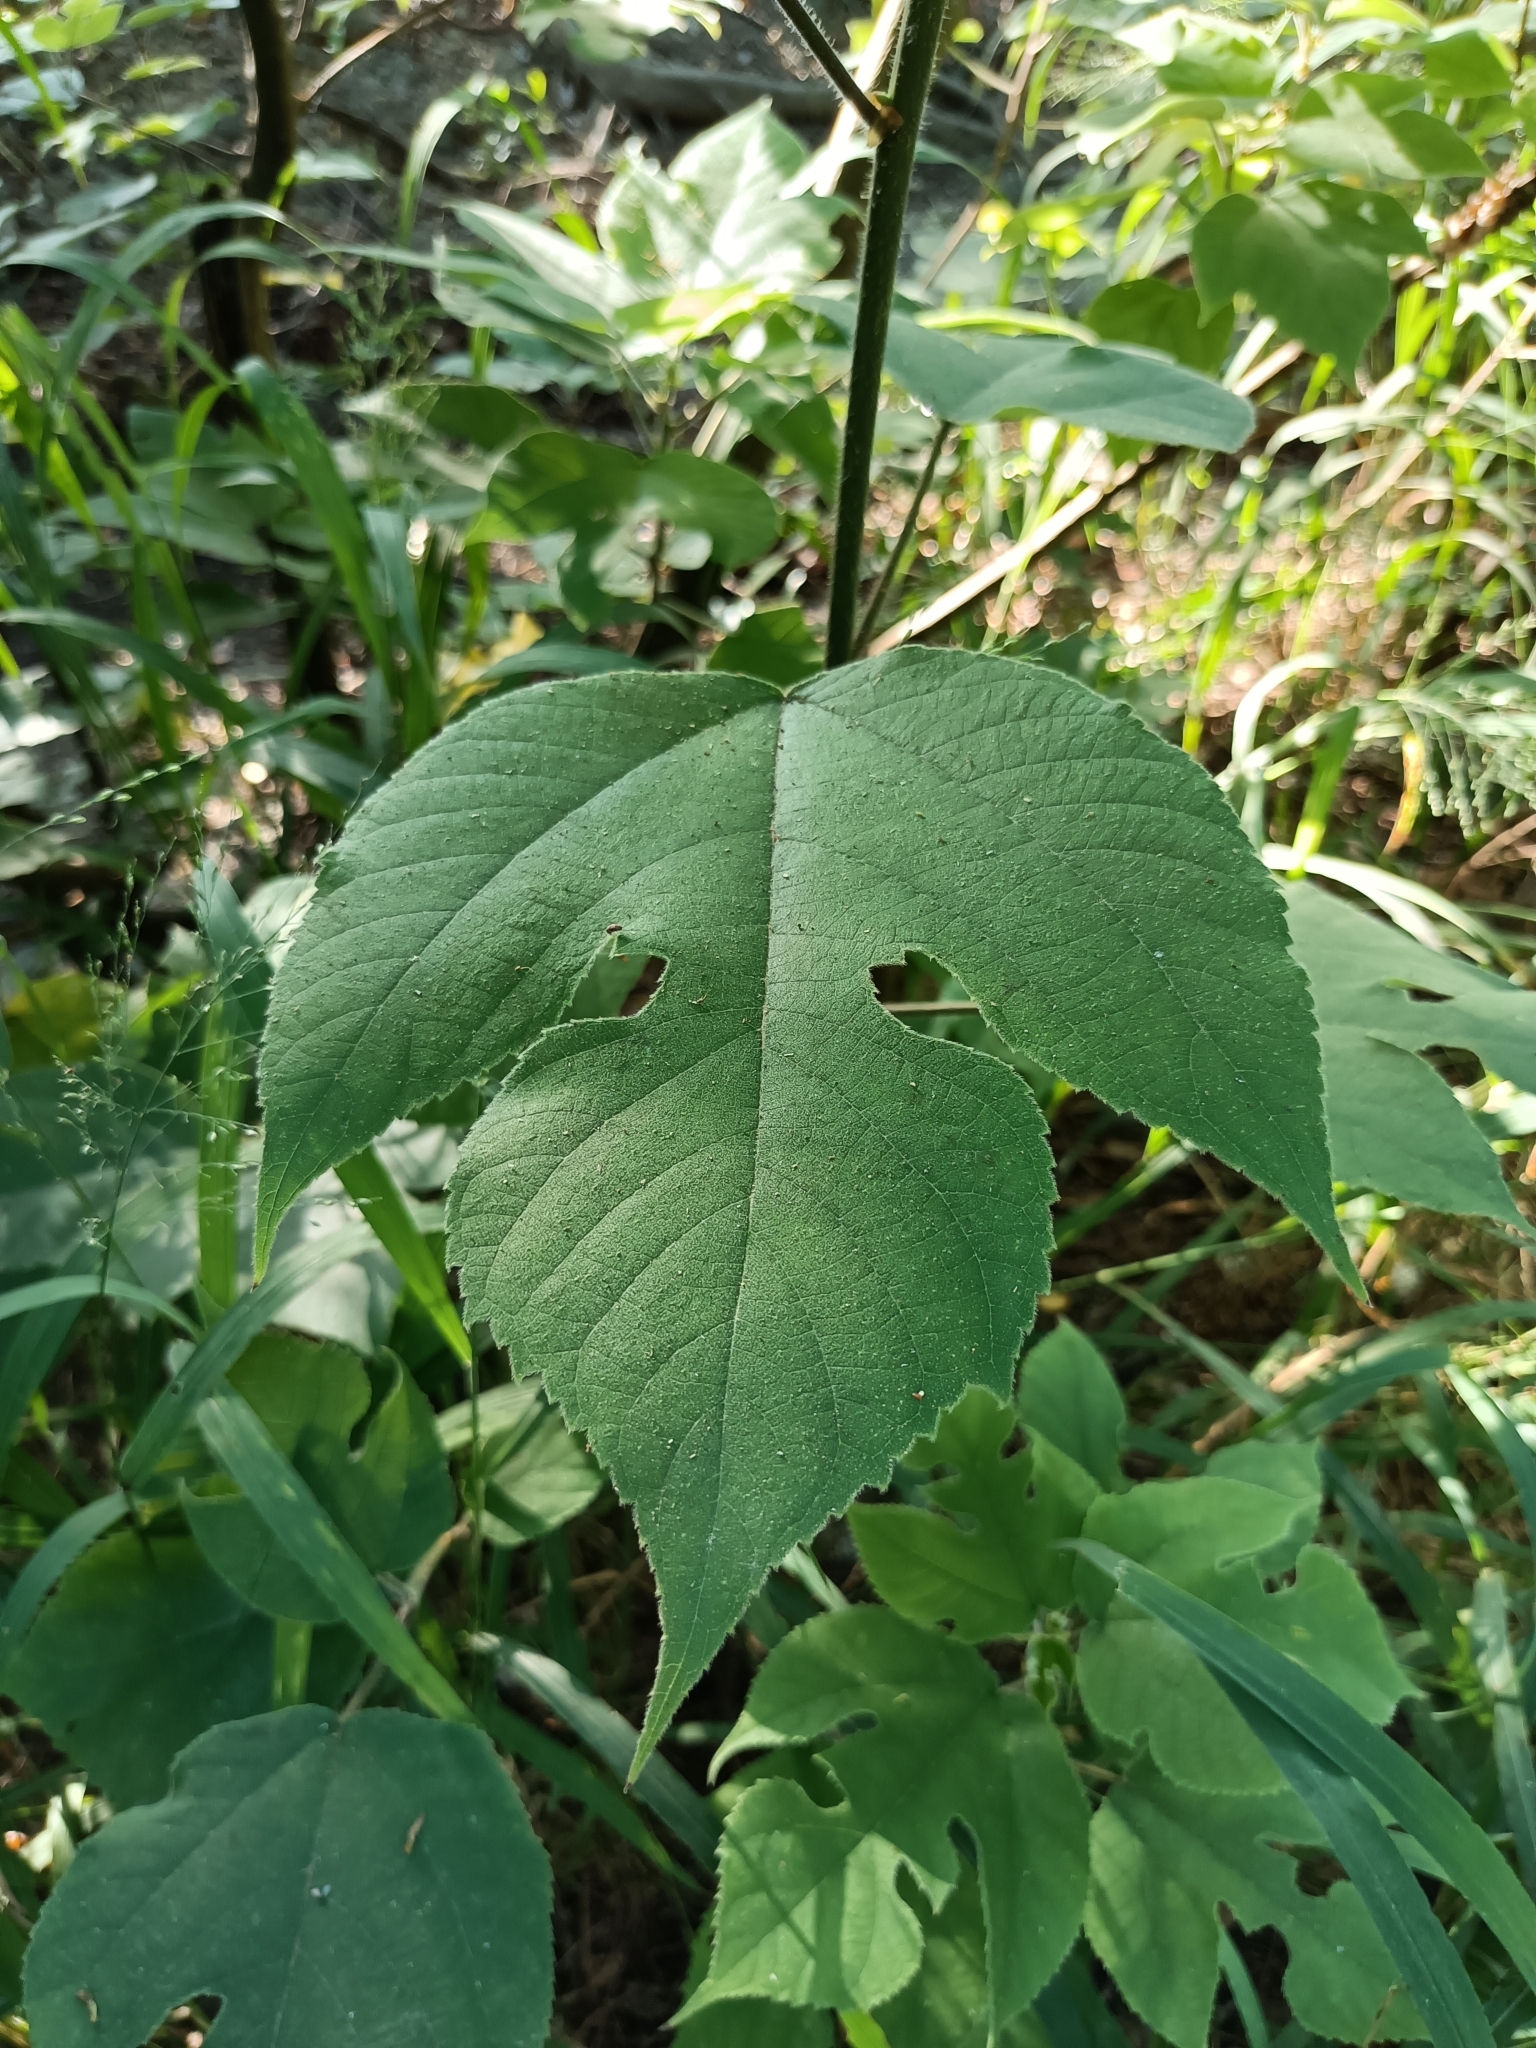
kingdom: Plantae
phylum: Tracheophyta
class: Magnoliopsida
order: Rosales
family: Moraceae
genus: Broussonetia
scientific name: Broussonetia papyrifera
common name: Paper mulberry
